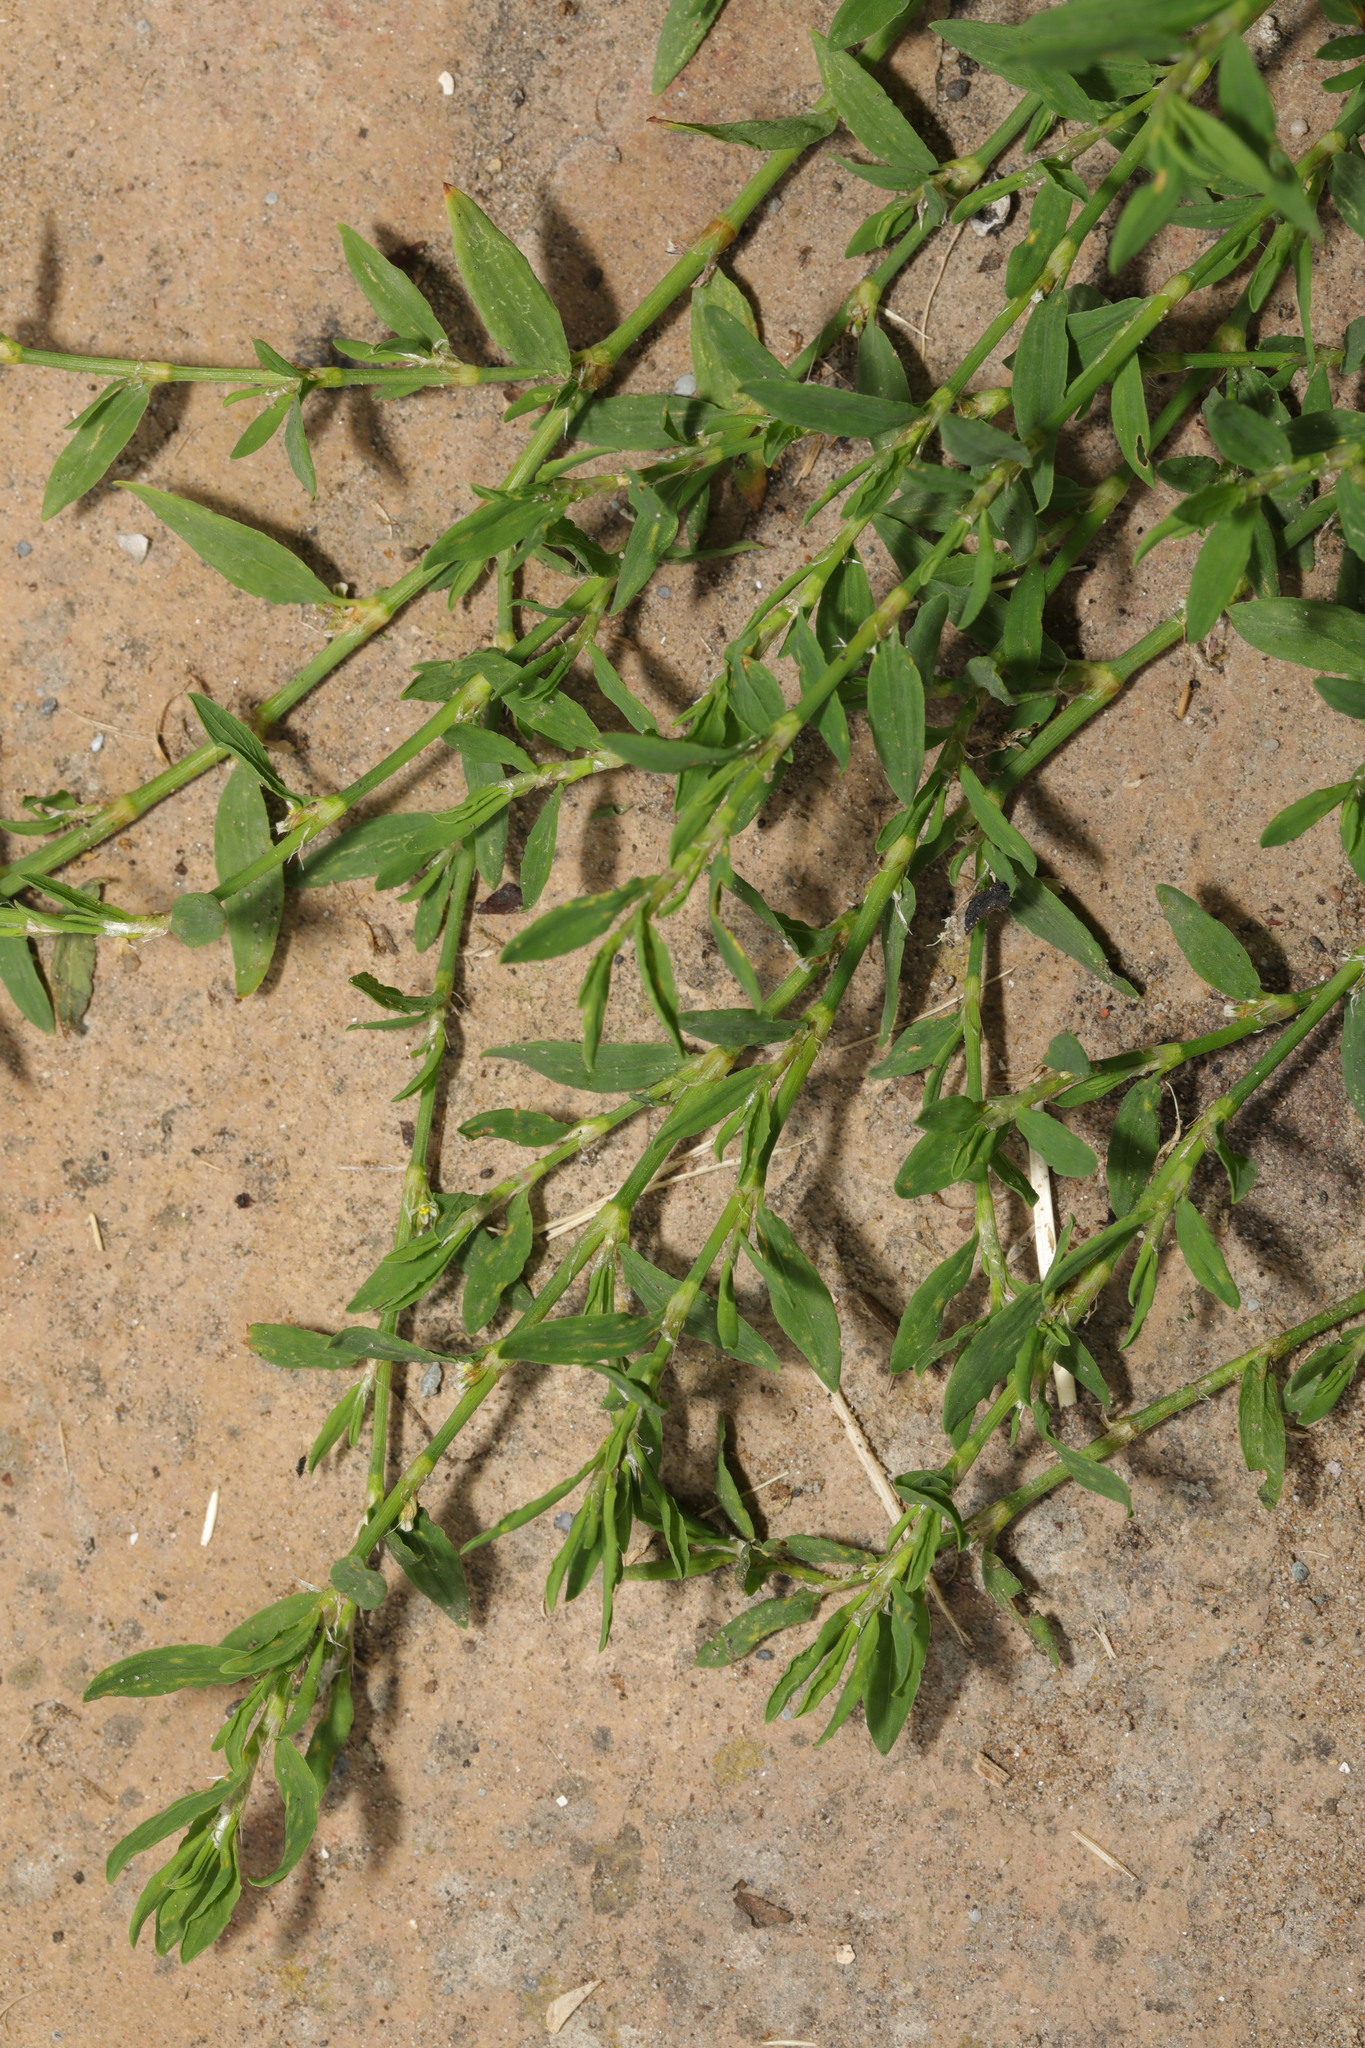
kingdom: Plantae
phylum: Tracheophyta
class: Magnoliopsida
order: Caryophyllales
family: Polygonaceae
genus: Polygonum
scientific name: Polygonum aviculare
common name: Prostrate knotweed
